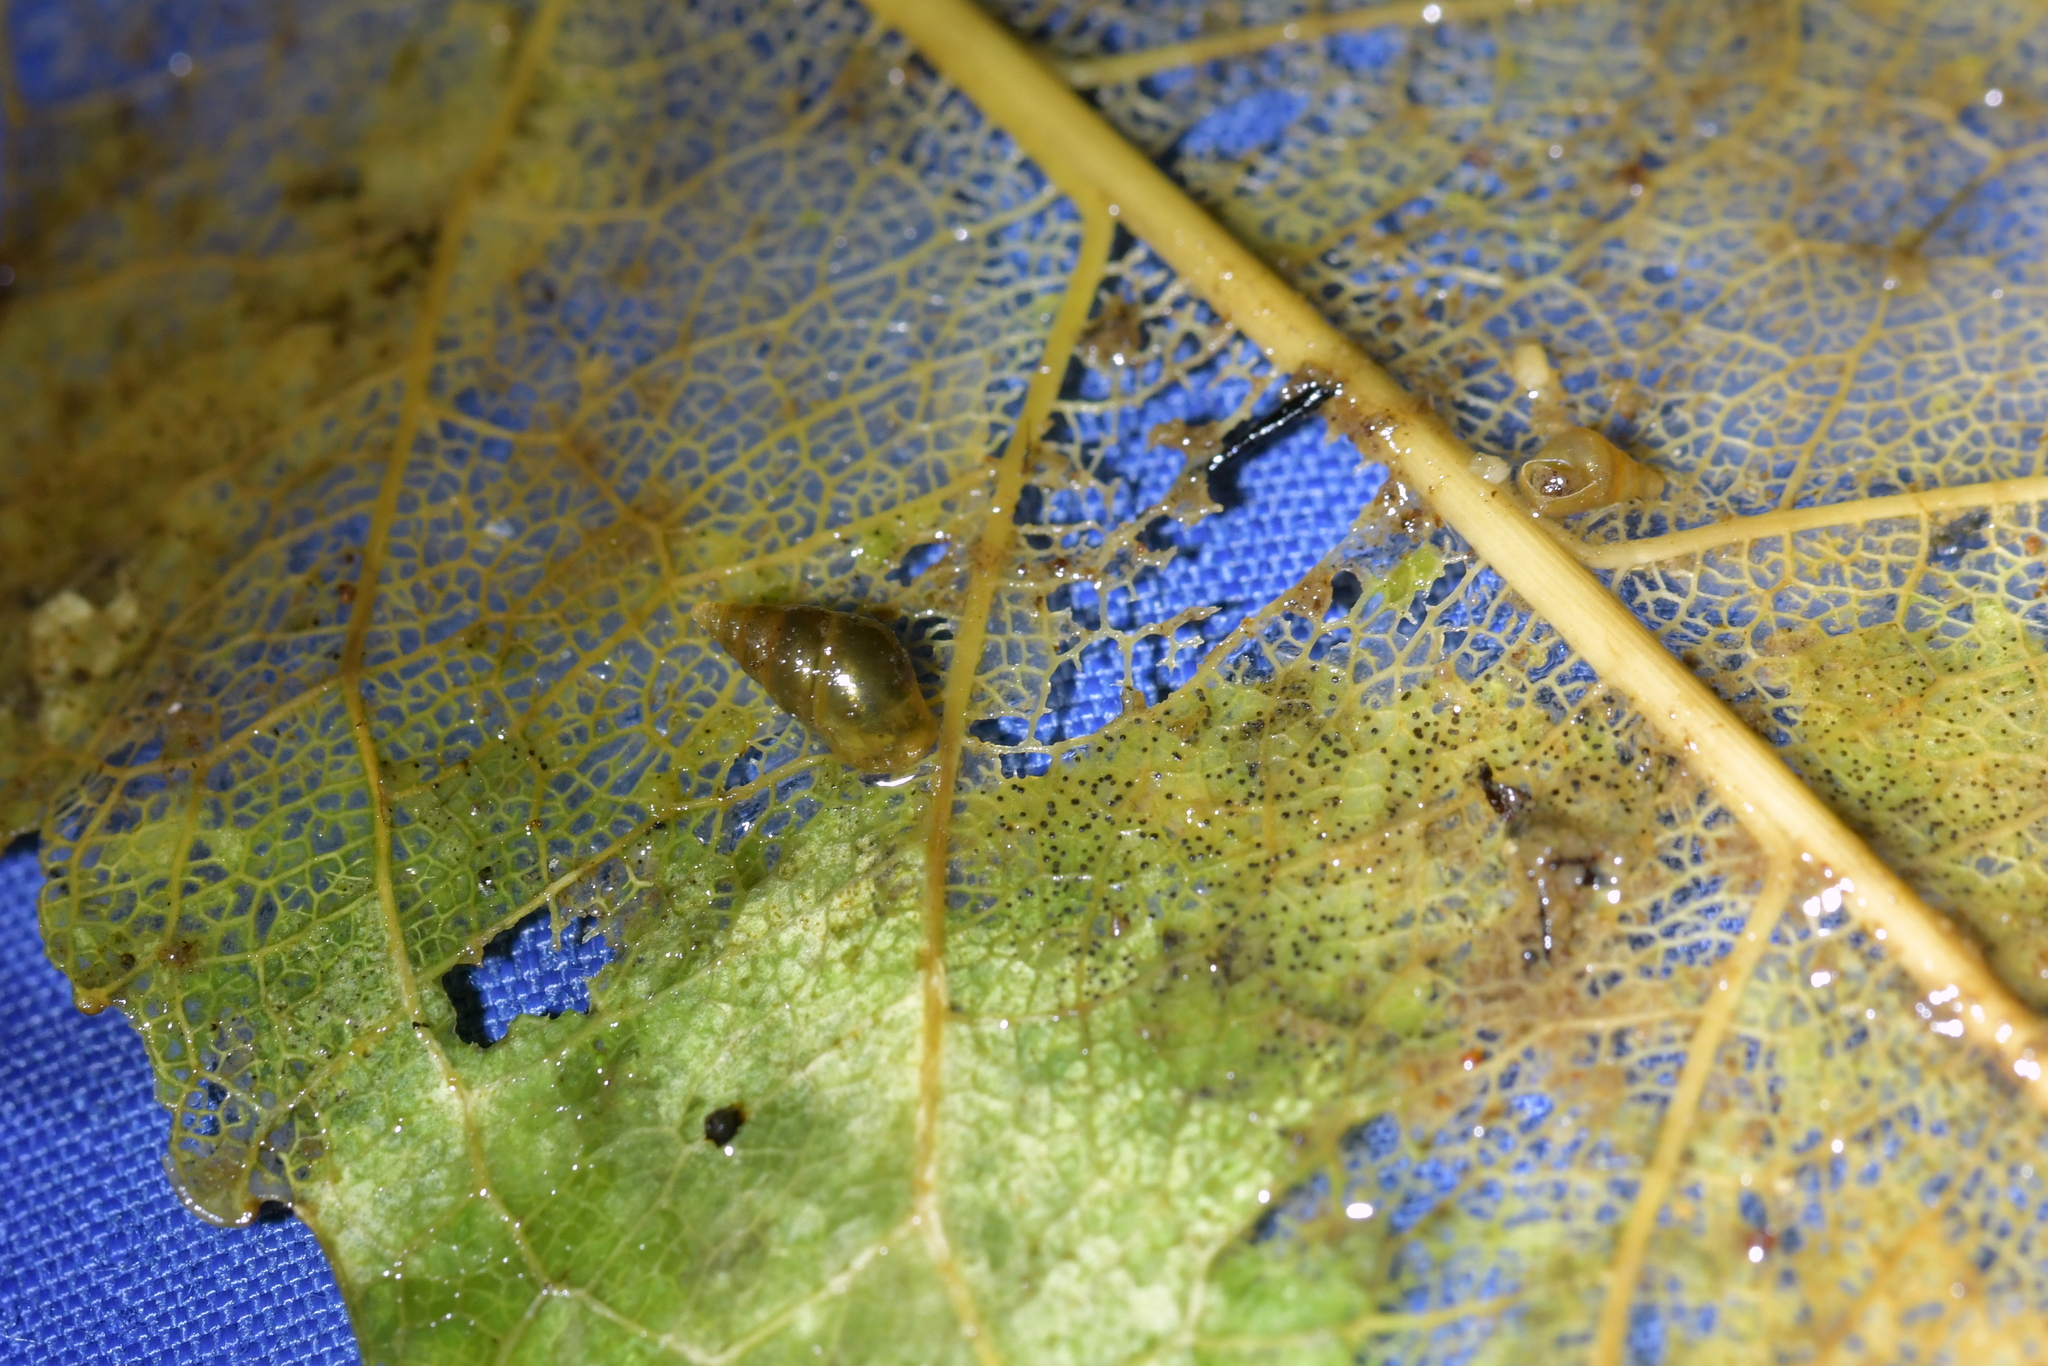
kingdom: Animalia
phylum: Mollusca
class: Gastropoda
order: Littorinimorpha
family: Tateidae
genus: Potamopyrgus
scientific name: Potamopyrgus antipodarum
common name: Jenkins' spire snail
